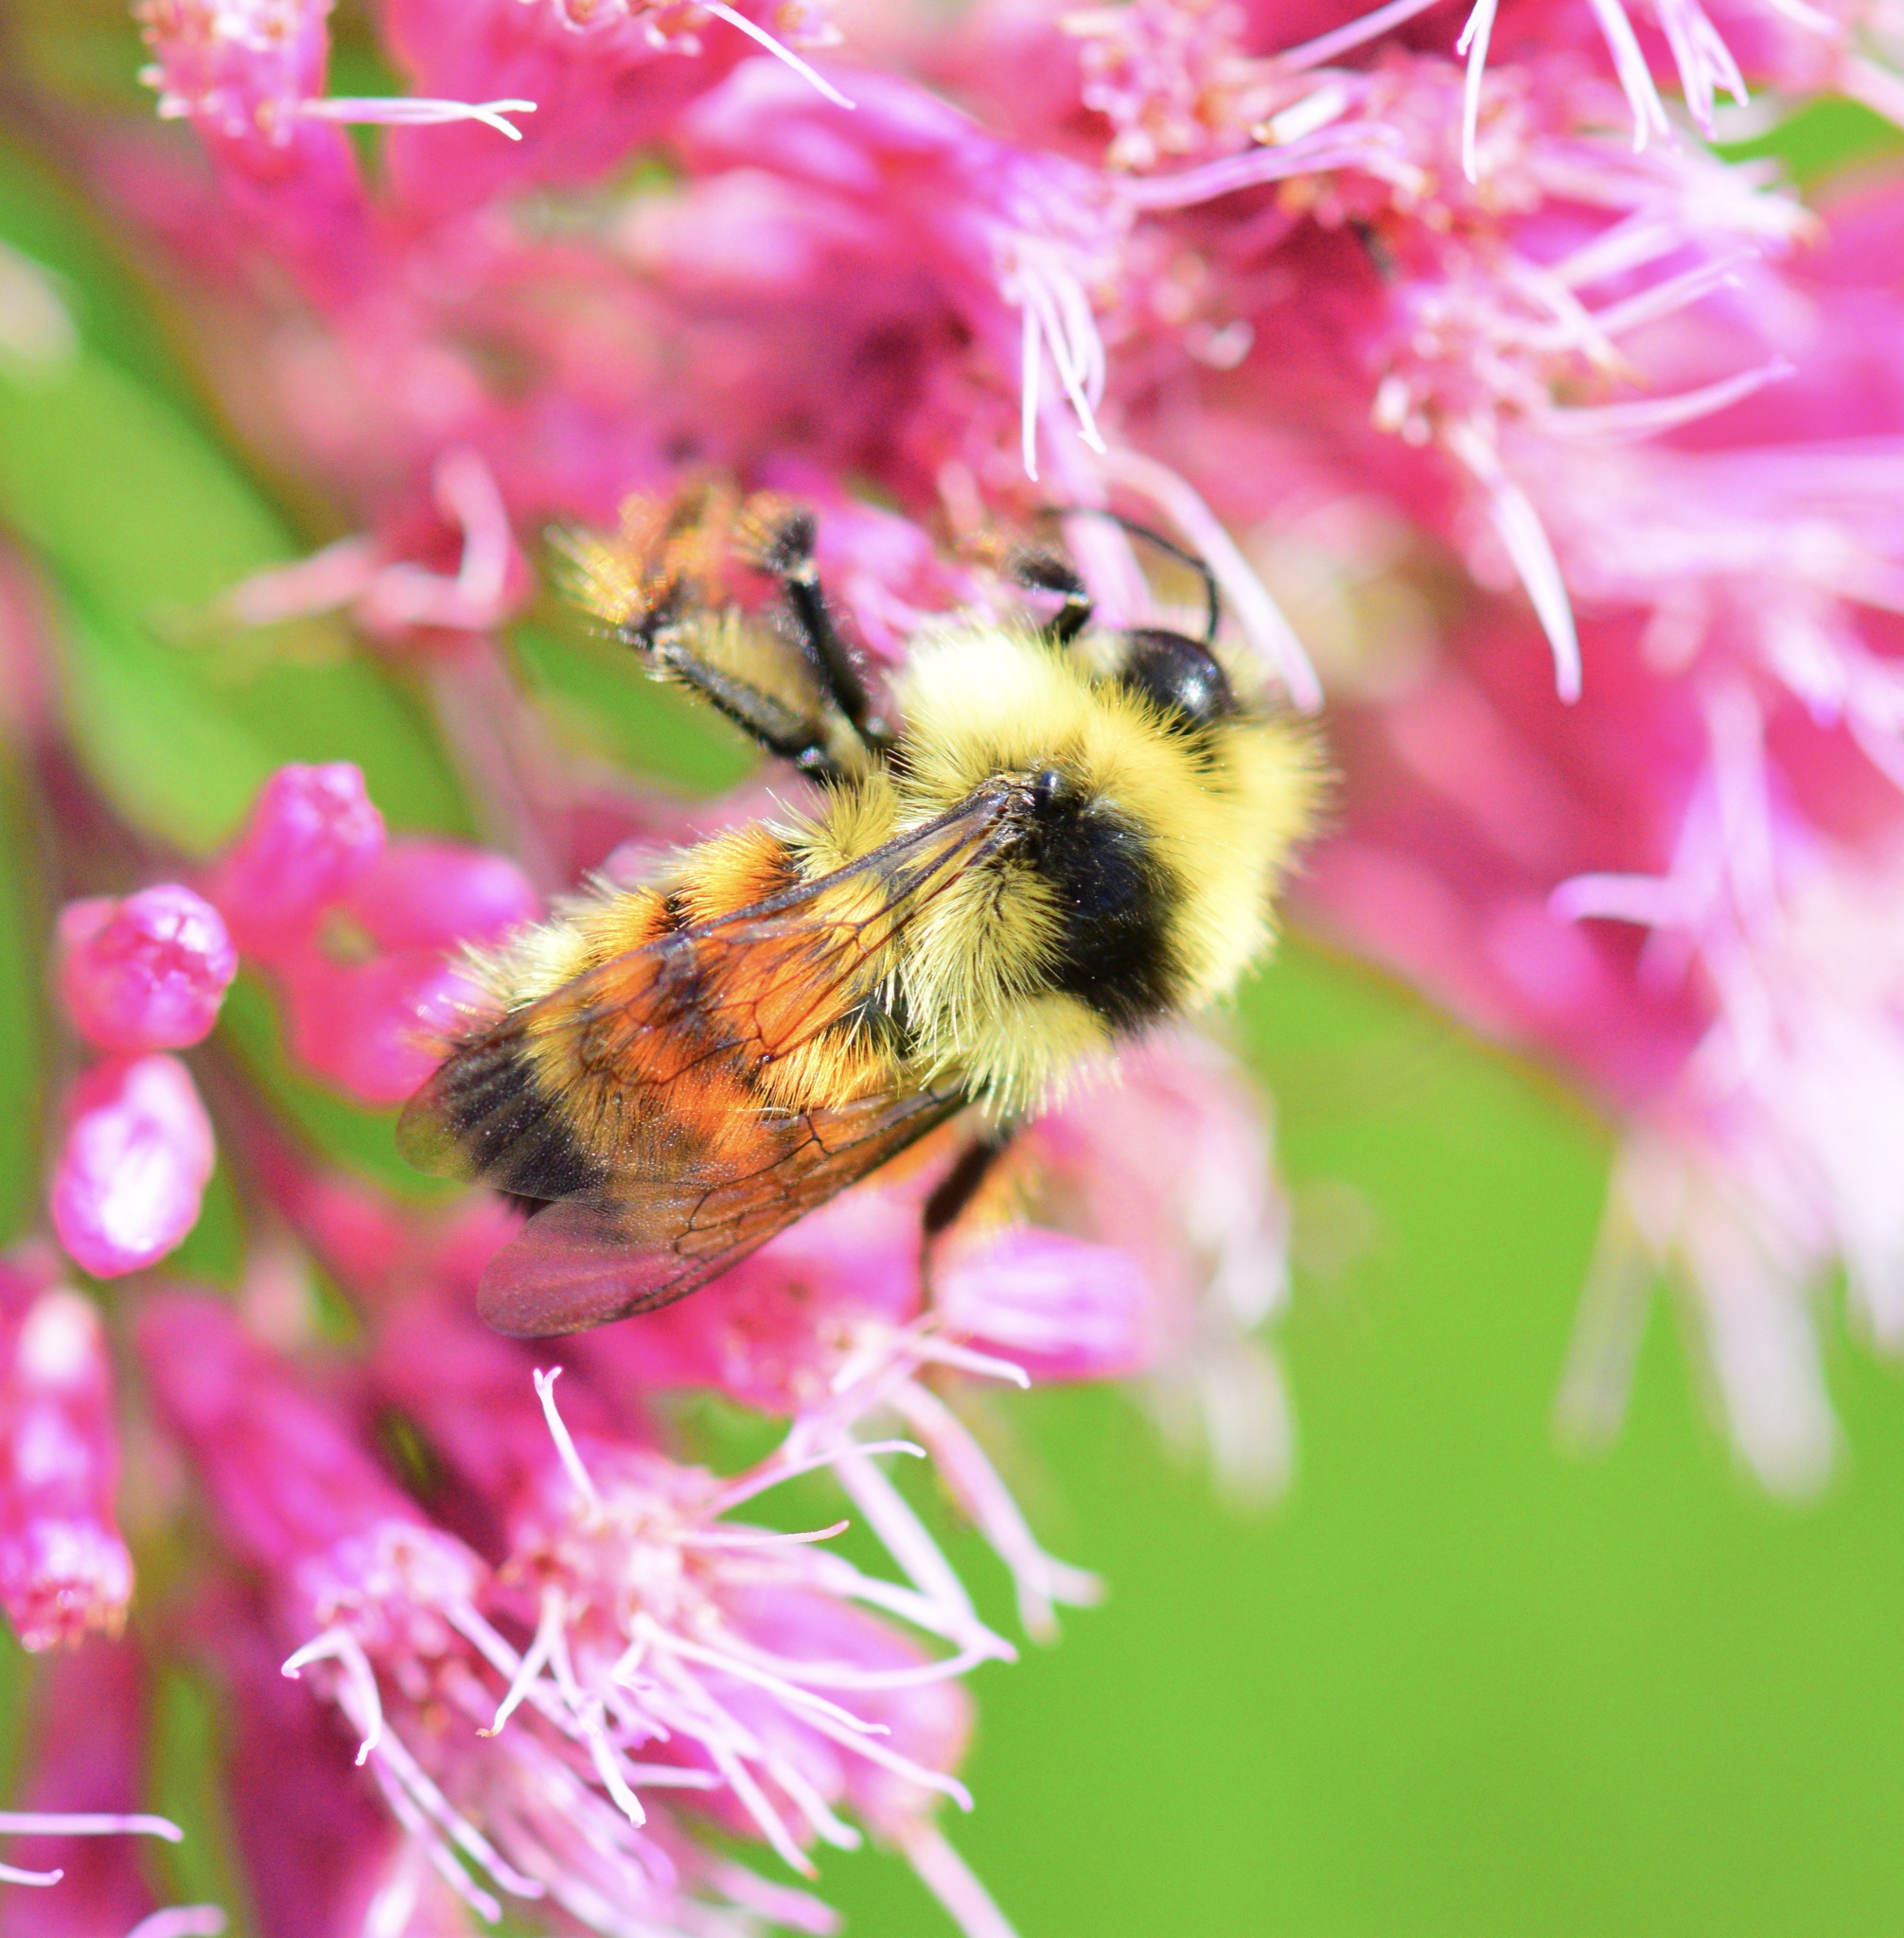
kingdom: Animalia
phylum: Arthropoda
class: Insecta
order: Hymenoptera
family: Apidae
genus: Bombus
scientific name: Bombus ternarius
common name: Tri-colored bumble bee
